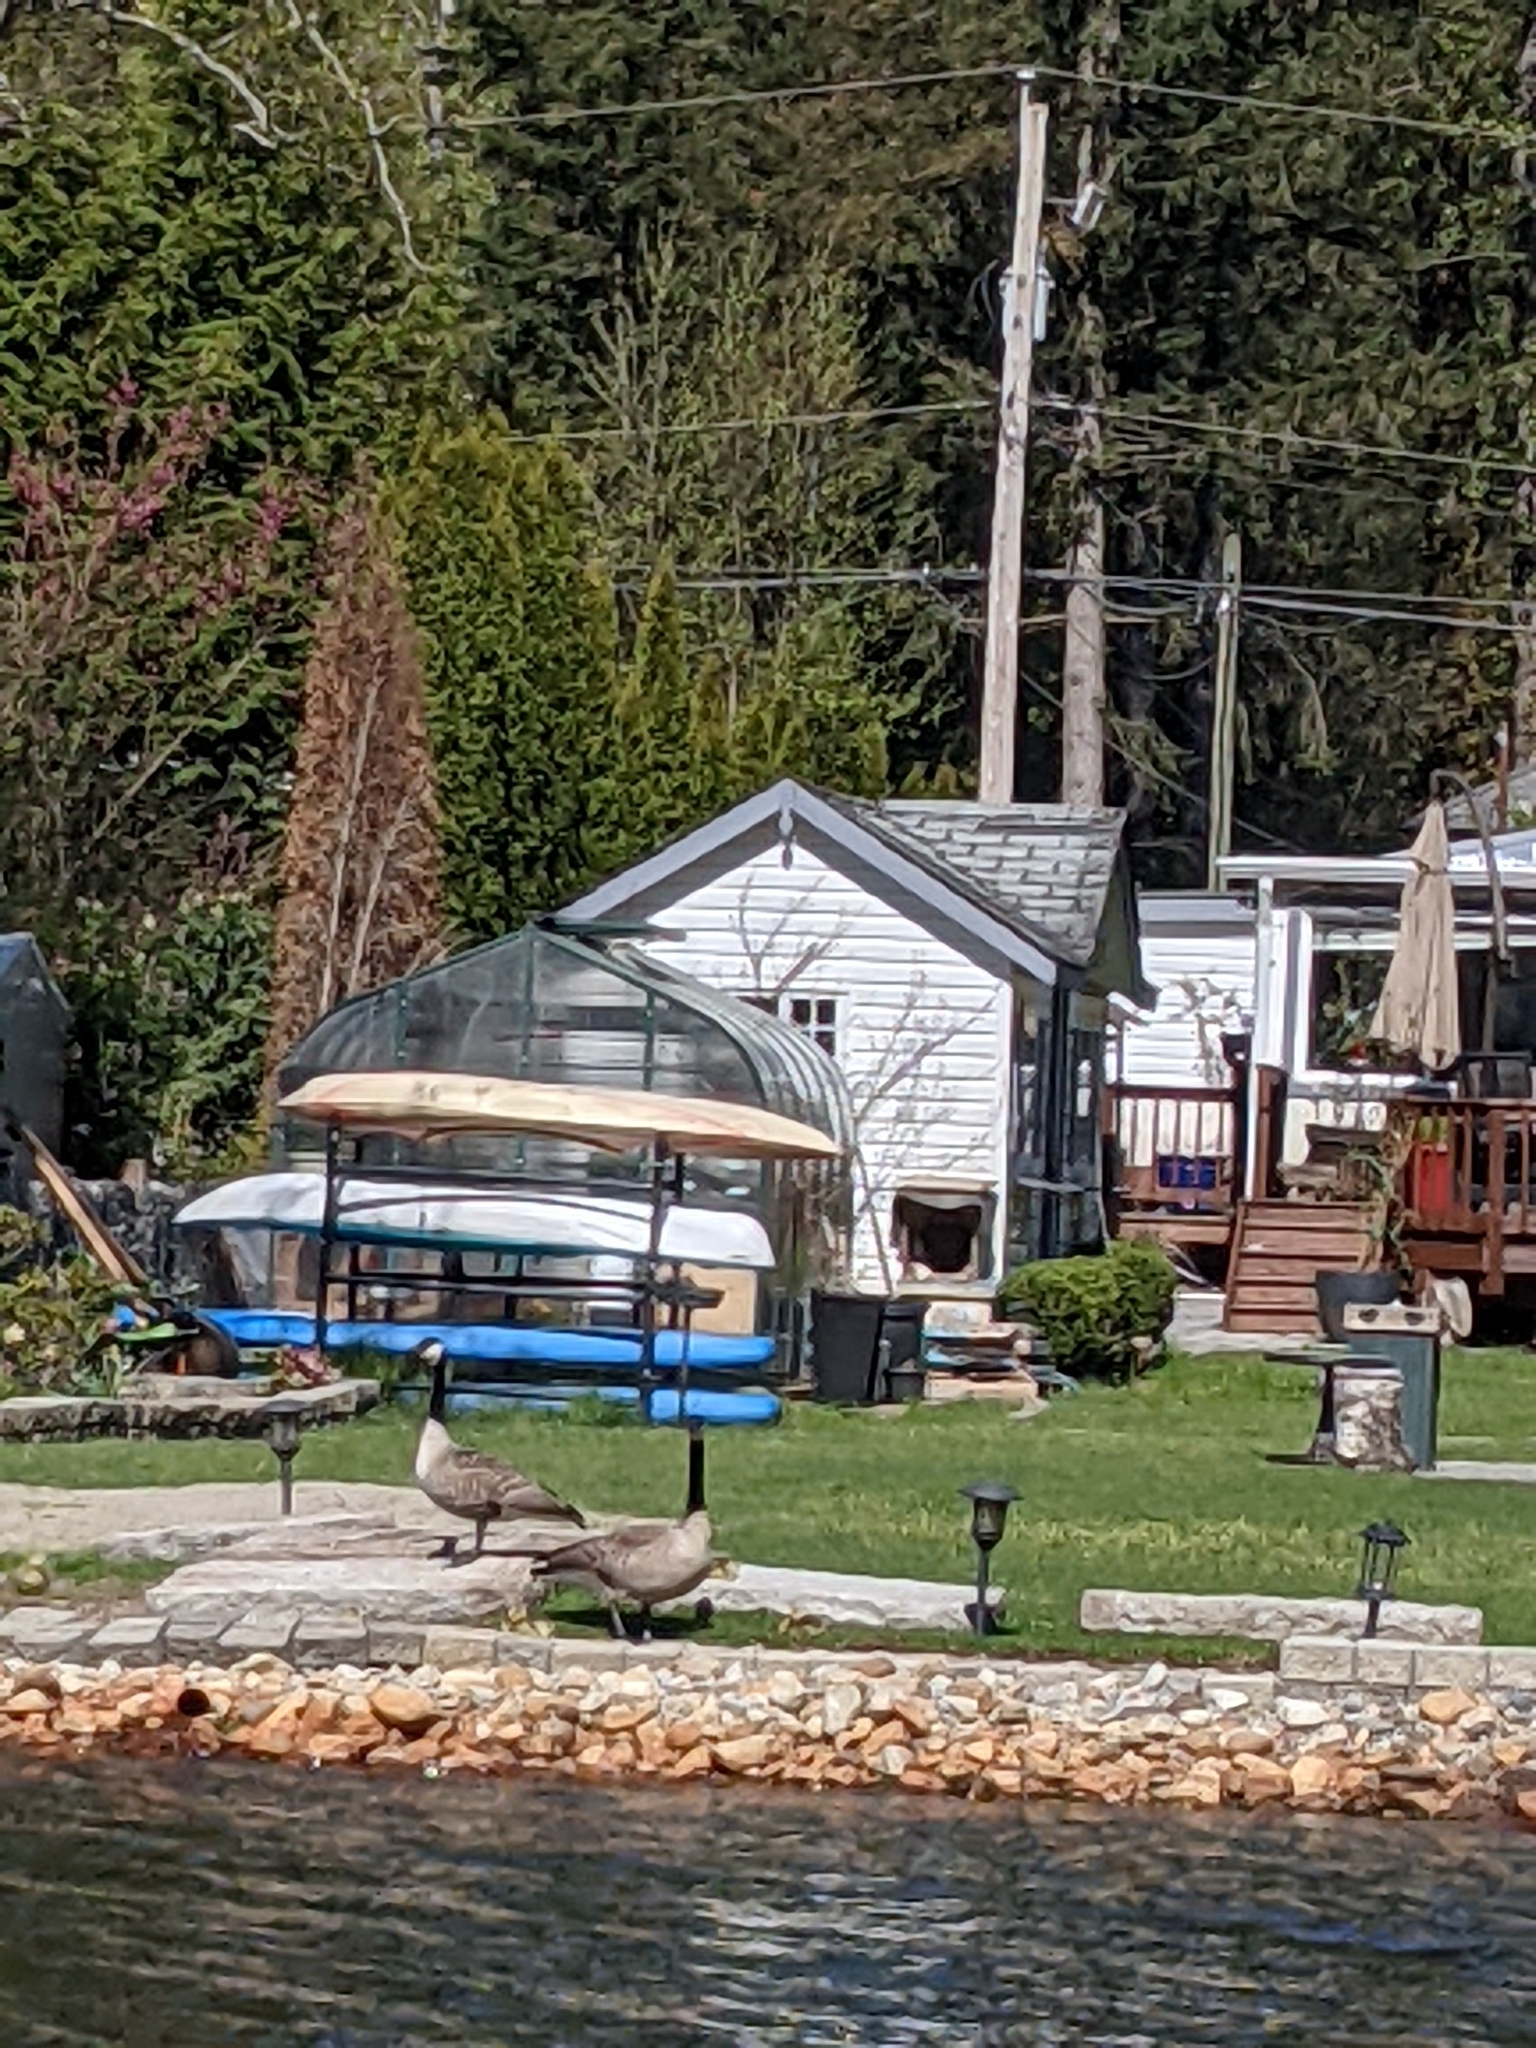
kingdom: Animalia
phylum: Chordata
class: Aves
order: Anseriformes
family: Anatidae
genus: Branta
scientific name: Branta canadensis
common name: Canada goose
